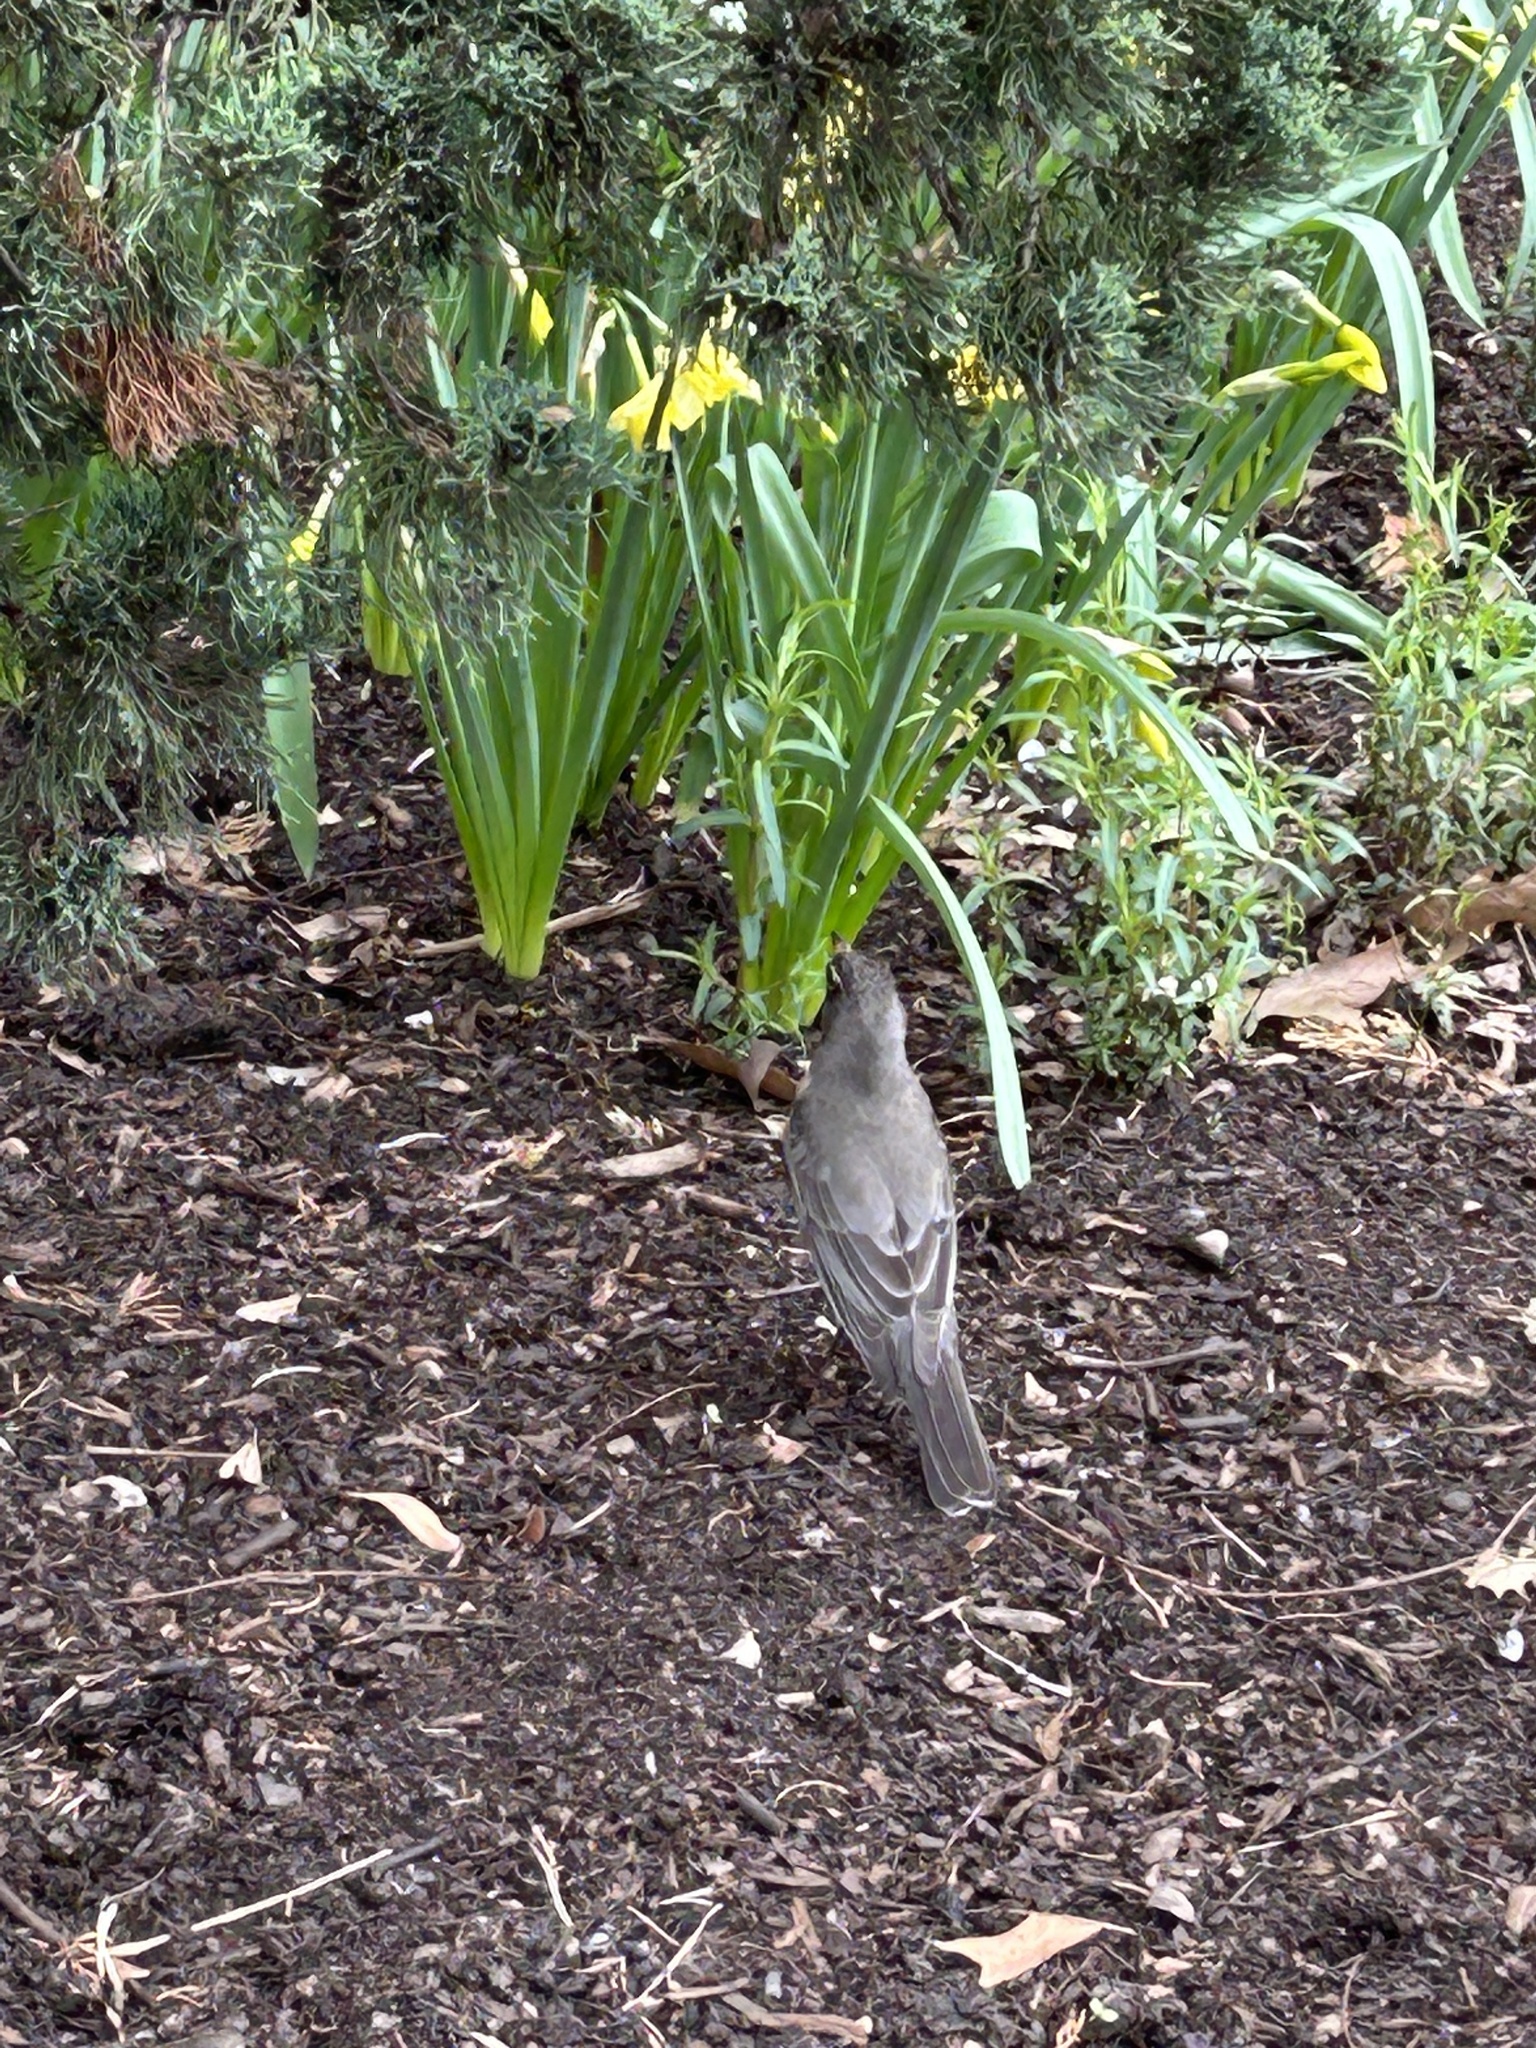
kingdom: Animalia
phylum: Chordata
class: Aves
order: Passeriformes
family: Turdidae
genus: Turdus
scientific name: Turdus migratorius
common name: American robin
